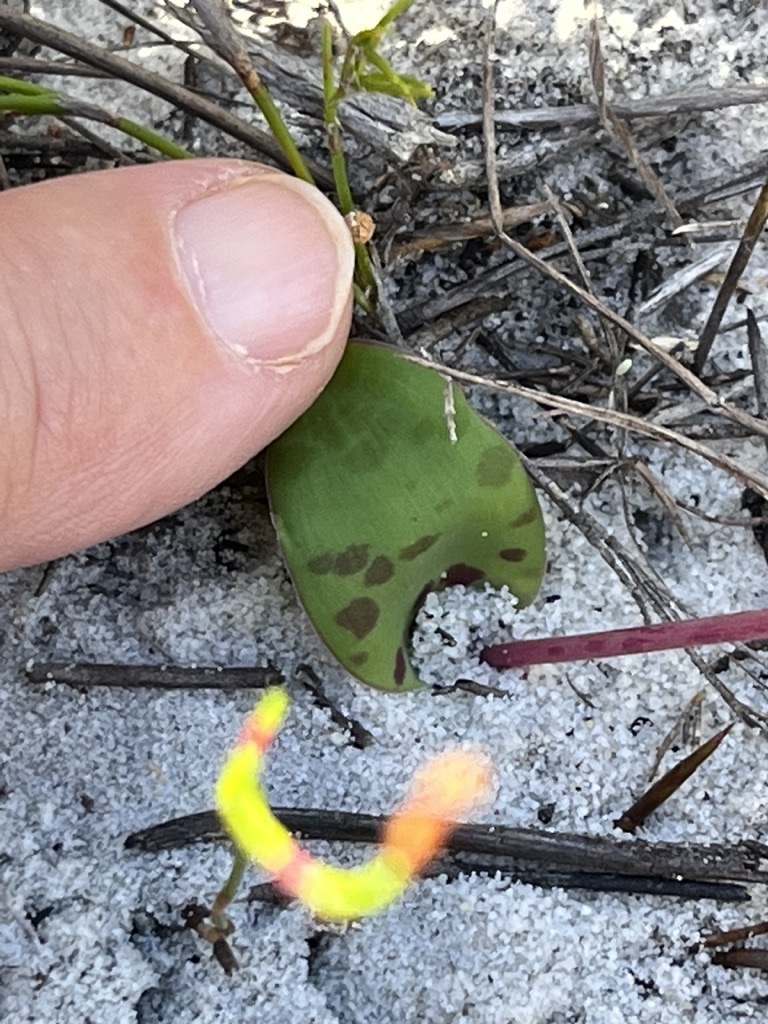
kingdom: Plantae
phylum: Tracheophyta
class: Liliopsida
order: Asparagales
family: Asparagaceae
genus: Lachenalia
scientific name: Lachenalia punctata
